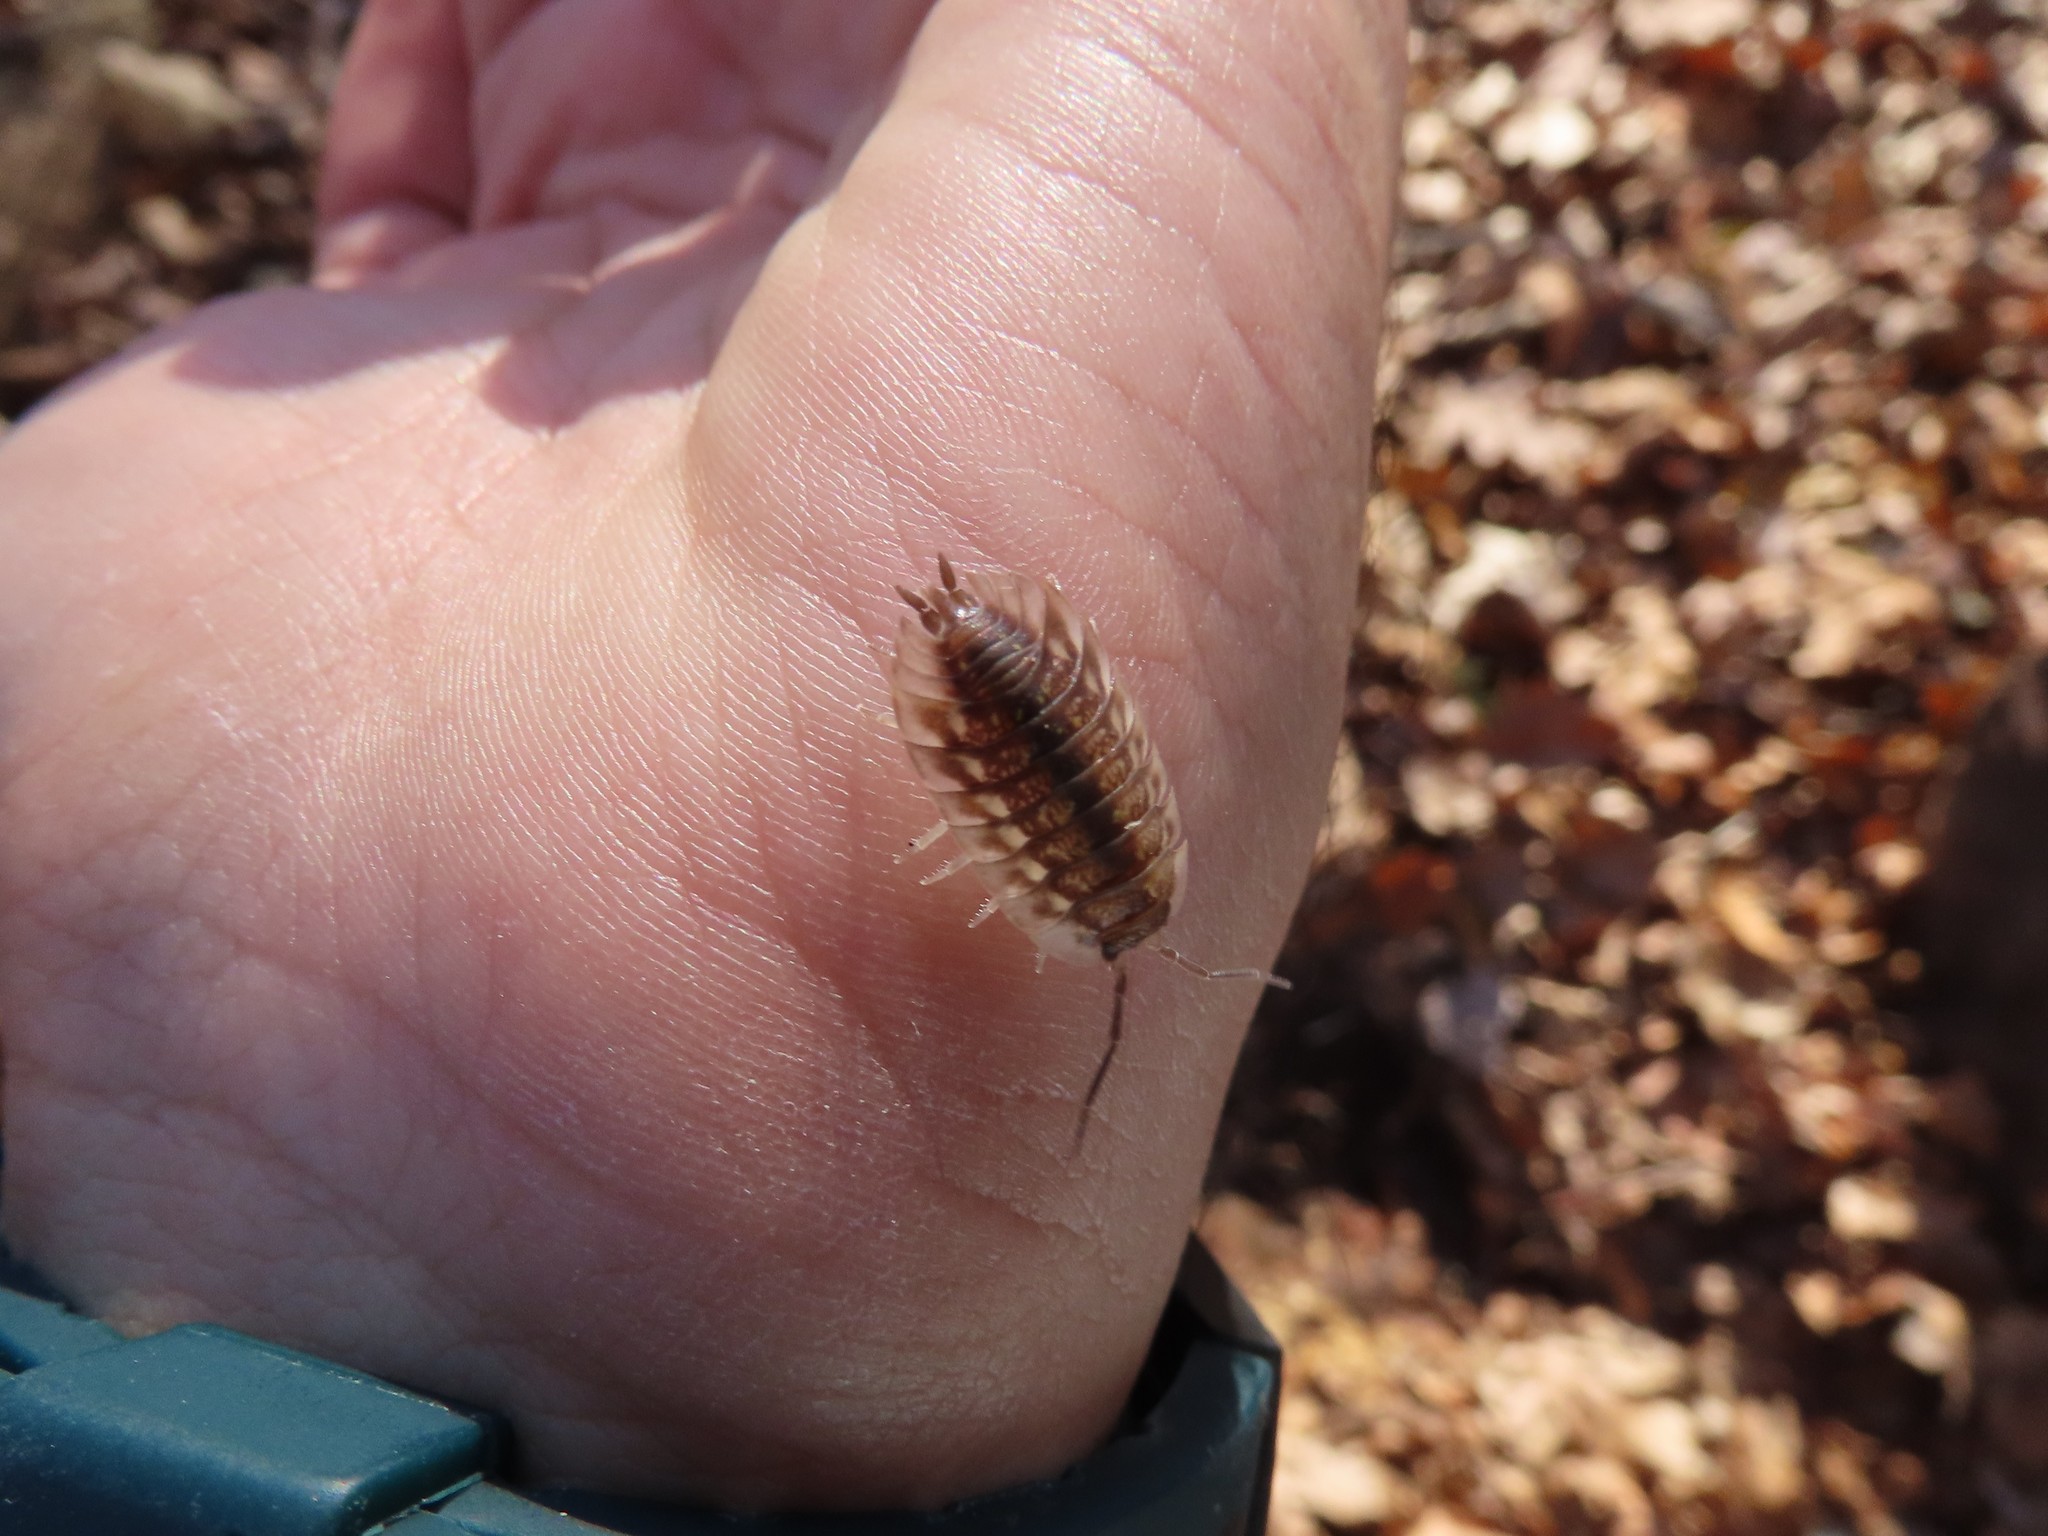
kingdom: Animalia
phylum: Arthropoda
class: Malacostraca
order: Isopoda
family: Oniscidae
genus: Oniscus
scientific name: Oniscus asellus
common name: Common shiny woodlouse
